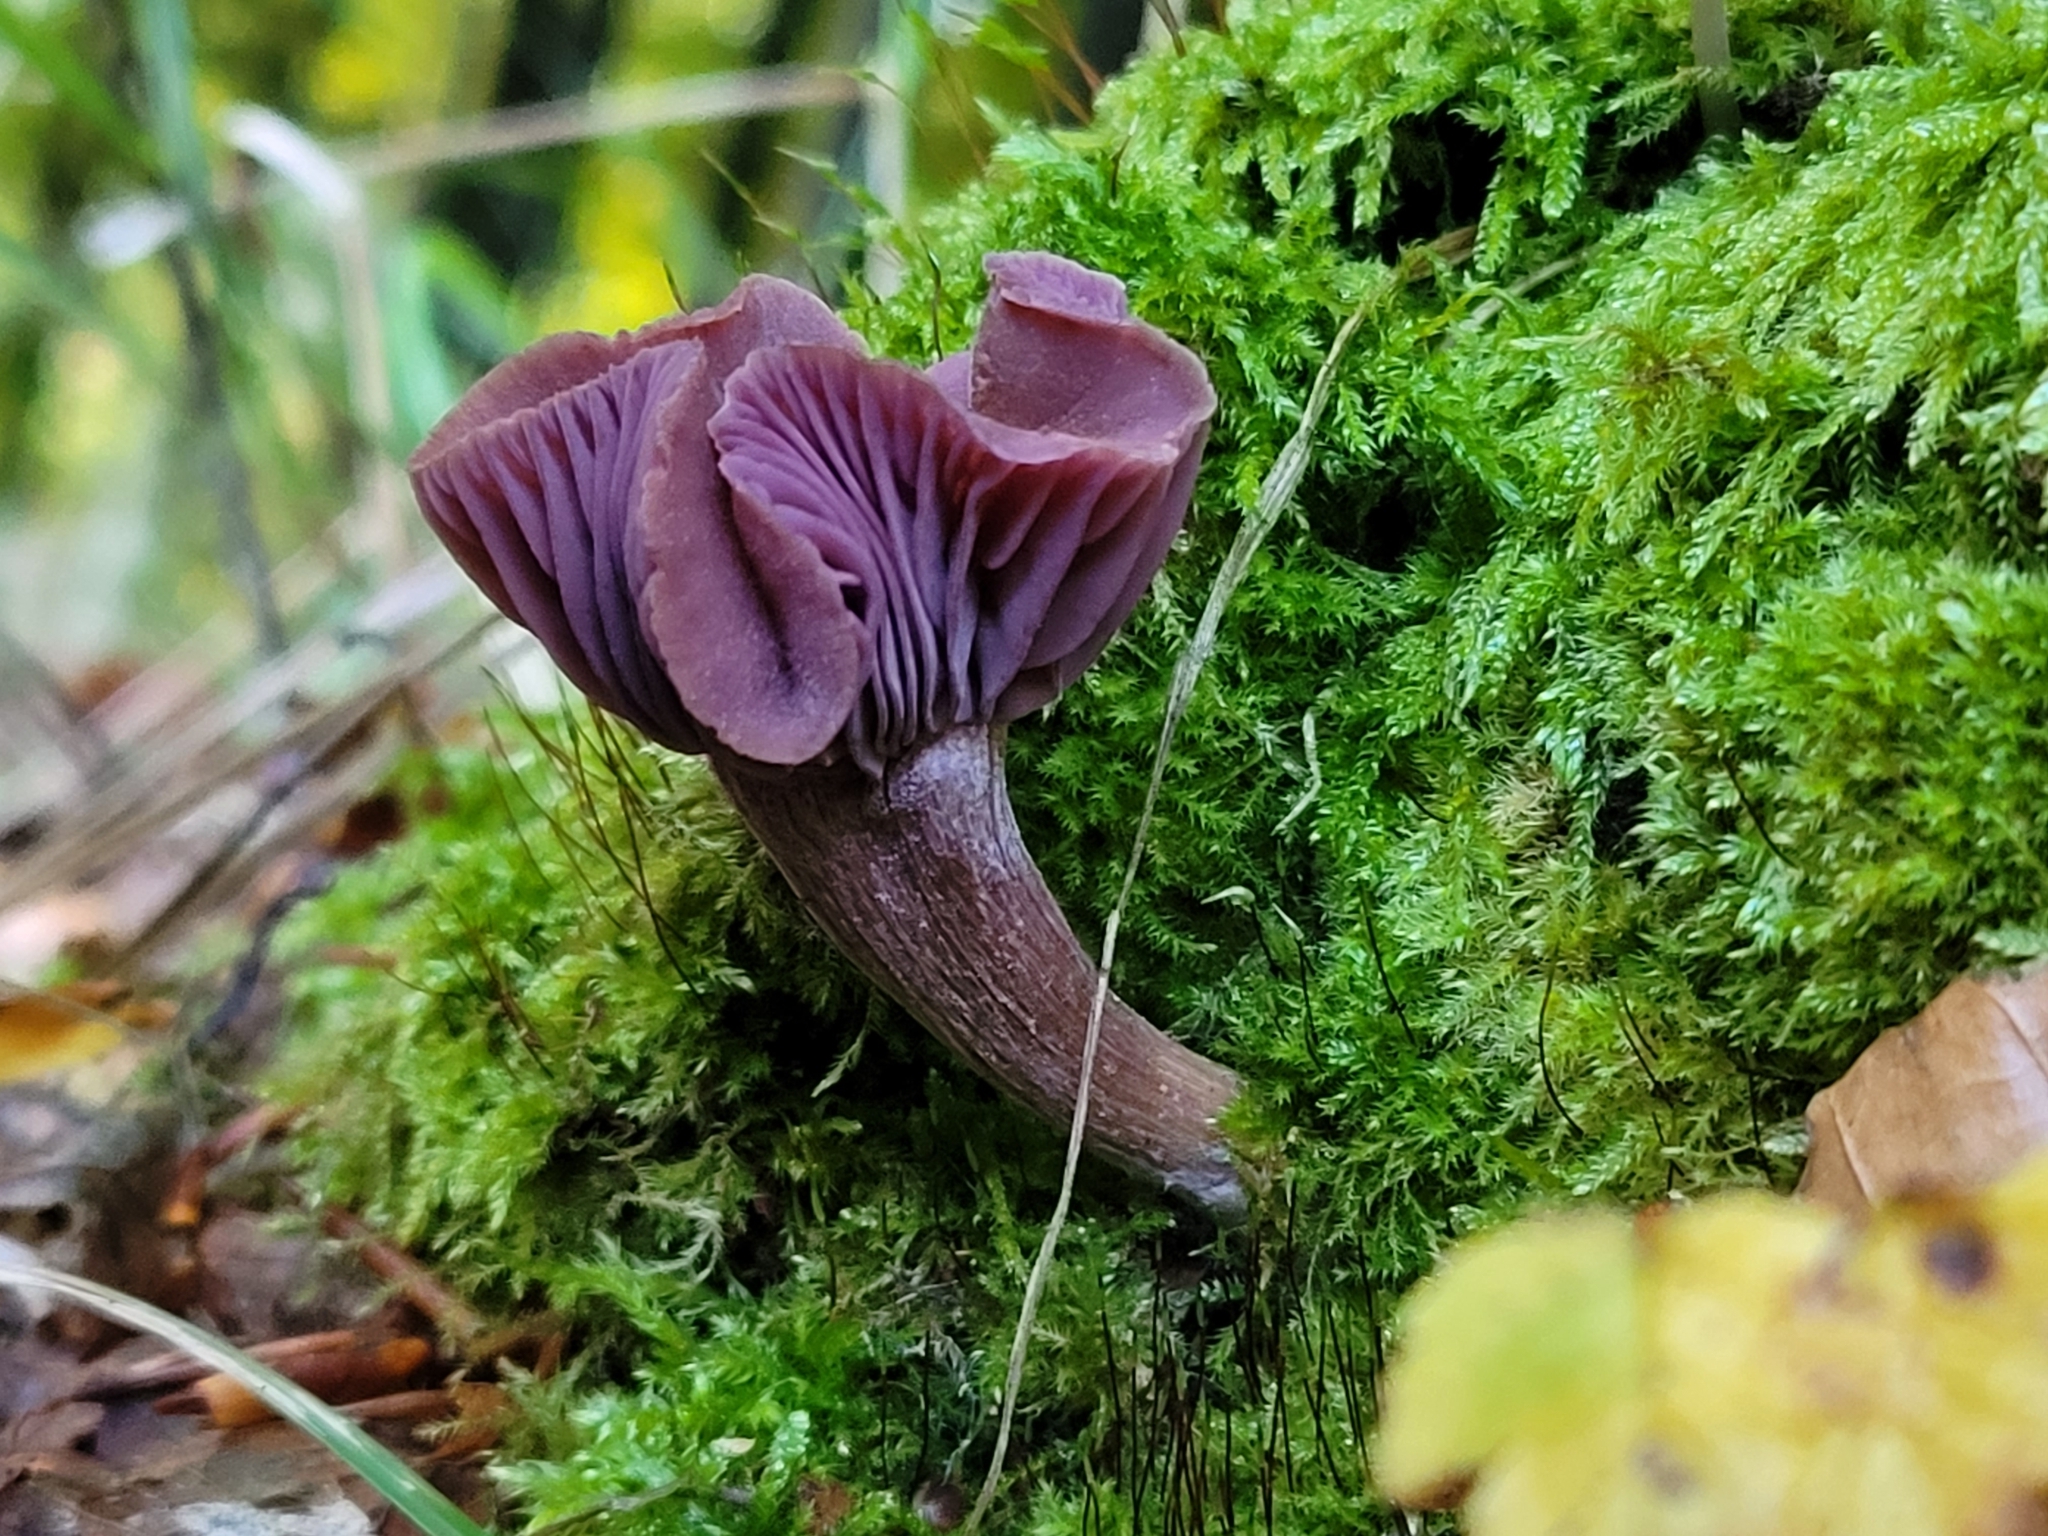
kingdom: Fungi
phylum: Basidiomycota
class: Agaricomycetes
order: Agaricales
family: Hydnangiaceae
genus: Laccaria
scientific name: Laccaria amethystina
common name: Amethyst deceiver
